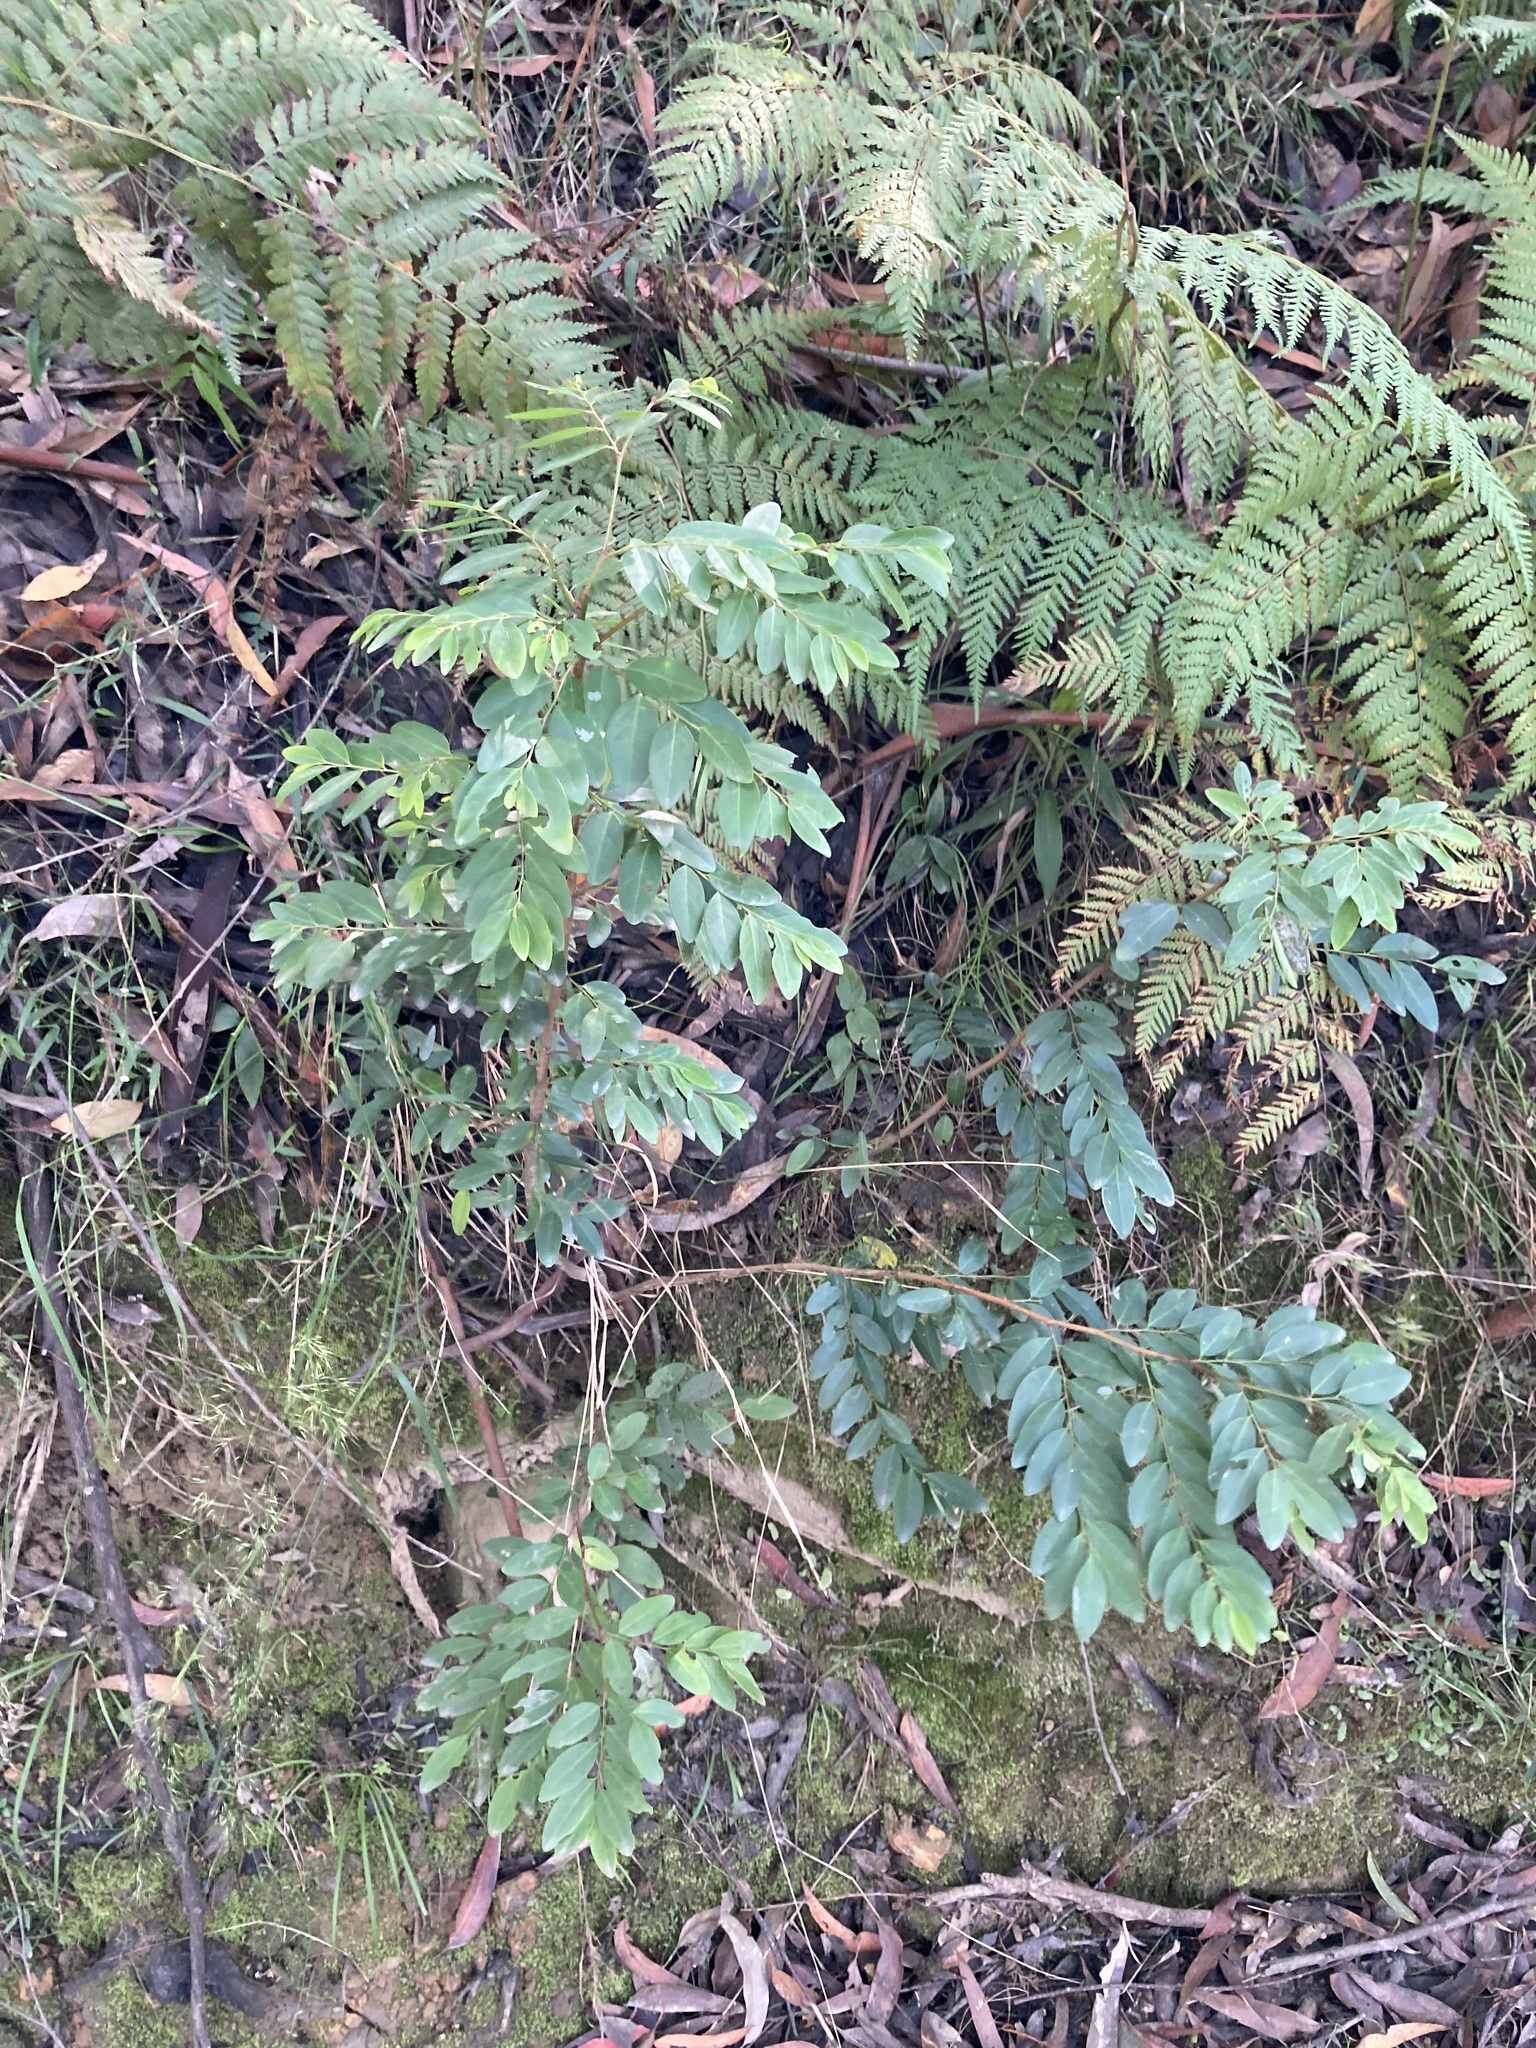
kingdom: Plantae
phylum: Tracheophyta
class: Magnoliopsida
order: Malpighiales
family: Phyllanthaceae
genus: Breynia
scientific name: Breynia oblongifolia
